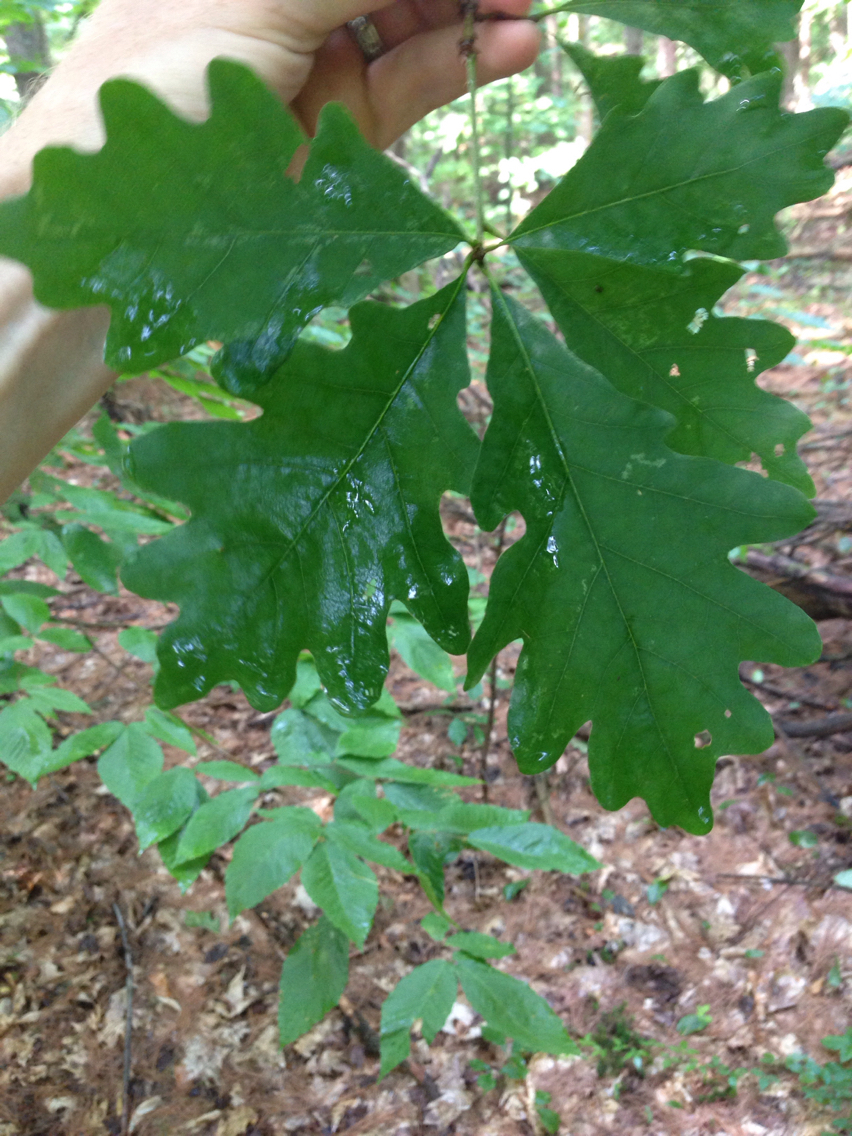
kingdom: Plantae
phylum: Tracheophyta
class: Magnoliopsida
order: Fagales
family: Fagaceae
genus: Quercus
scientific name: Quercus alba
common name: White oak
